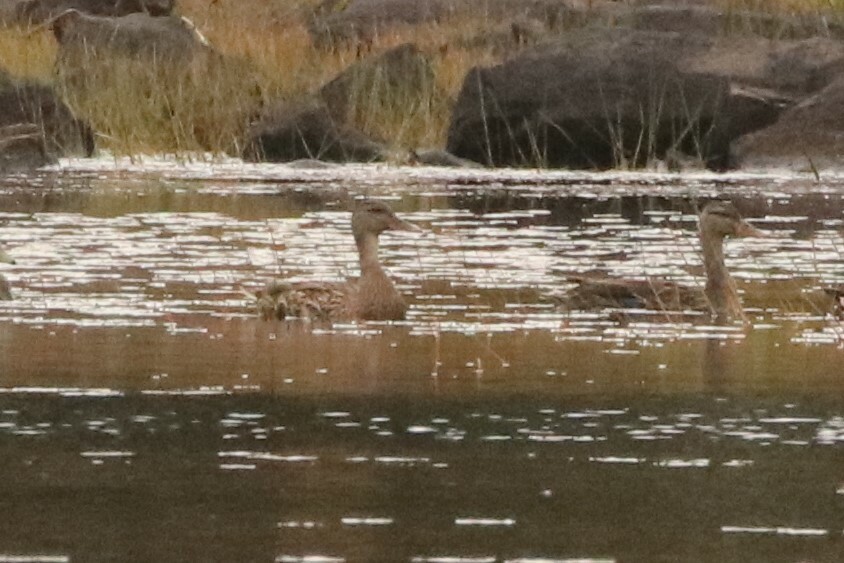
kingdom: Animalia
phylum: Chordata
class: Aves
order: Anseriformes
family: Anatidae
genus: Anas
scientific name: Anas platyrhynchos
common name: Mallard
